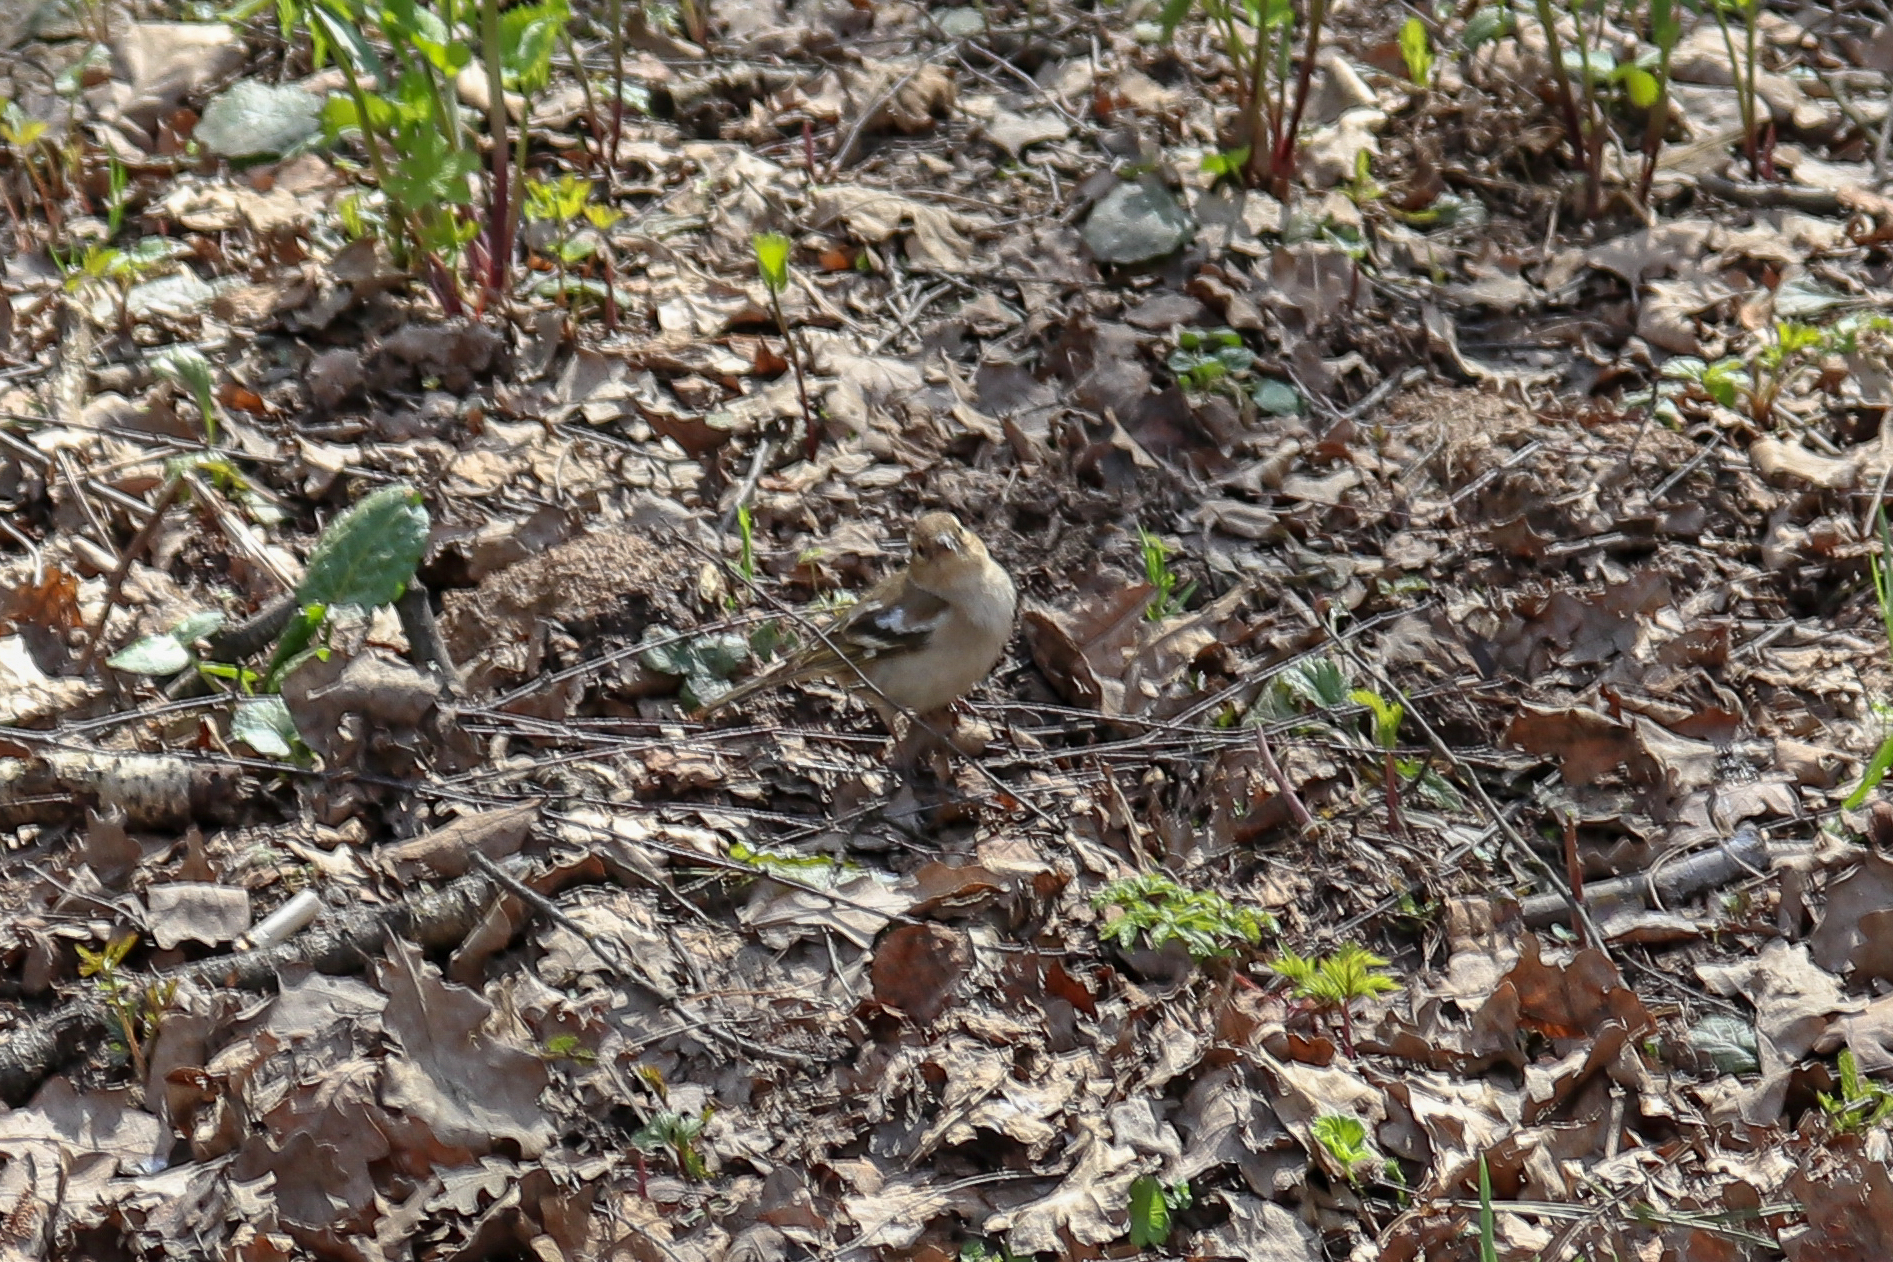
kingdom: Animalia
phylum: Chordata
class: Aves
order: Passeriformes
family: Fringillidae
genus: Fringilla
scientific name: Fringilla coelebs
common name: Common chaffinch
